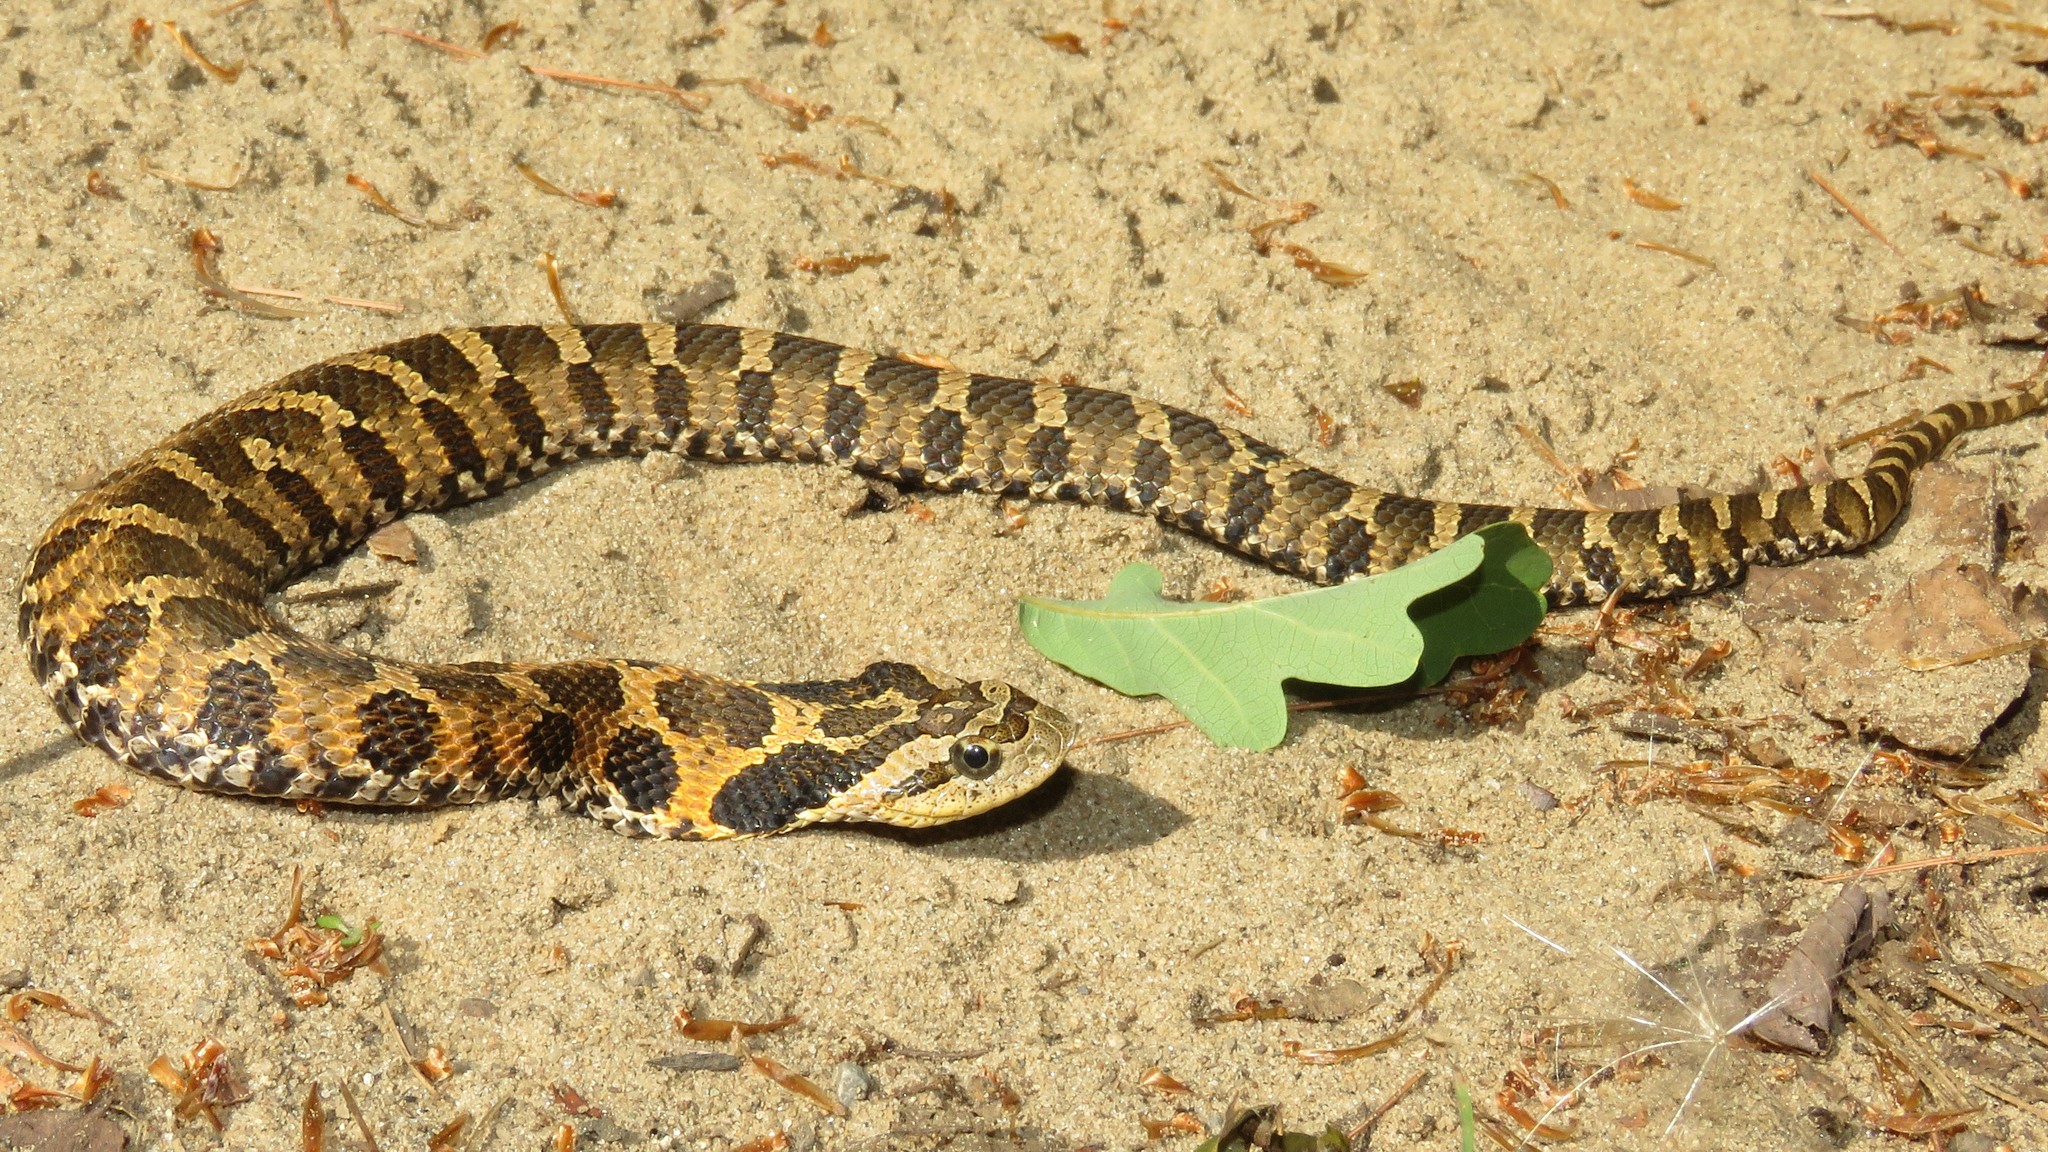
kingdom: Animalia
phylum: Chordata
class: Squamata
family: Colubridae
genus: Heterodon
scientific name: Heterodon platirhinos
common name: Eastern hognose snake
